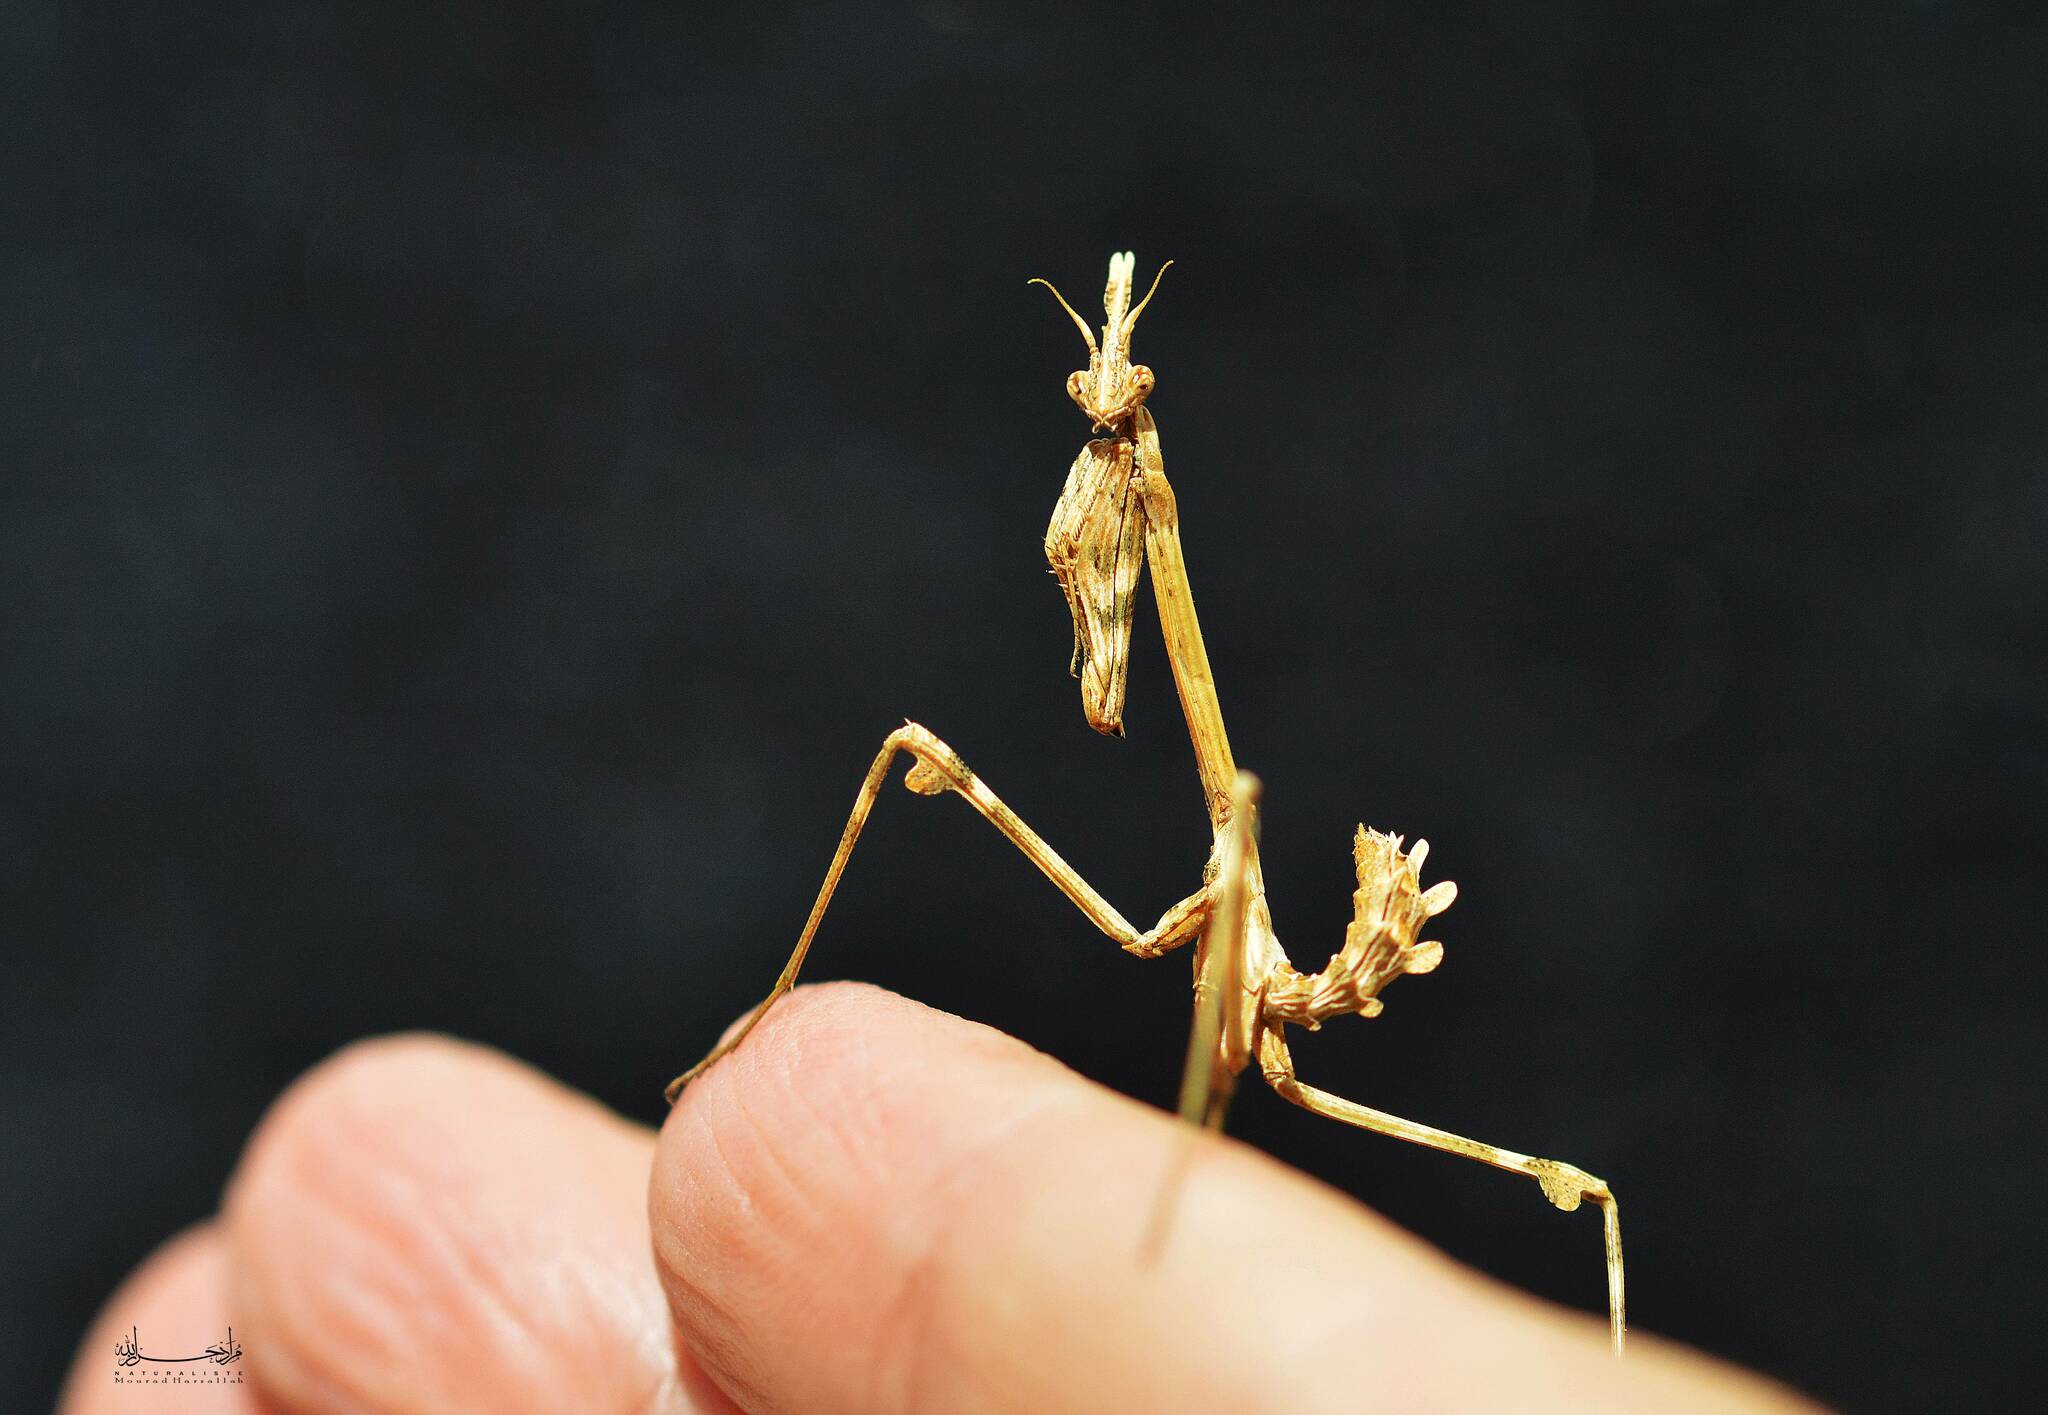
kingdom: Animalia
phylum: Arthropoda
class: Insecta
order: Mantodea
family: Empusidae
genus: Empusa
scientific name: Empusa pennata
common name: Conehead mantis
